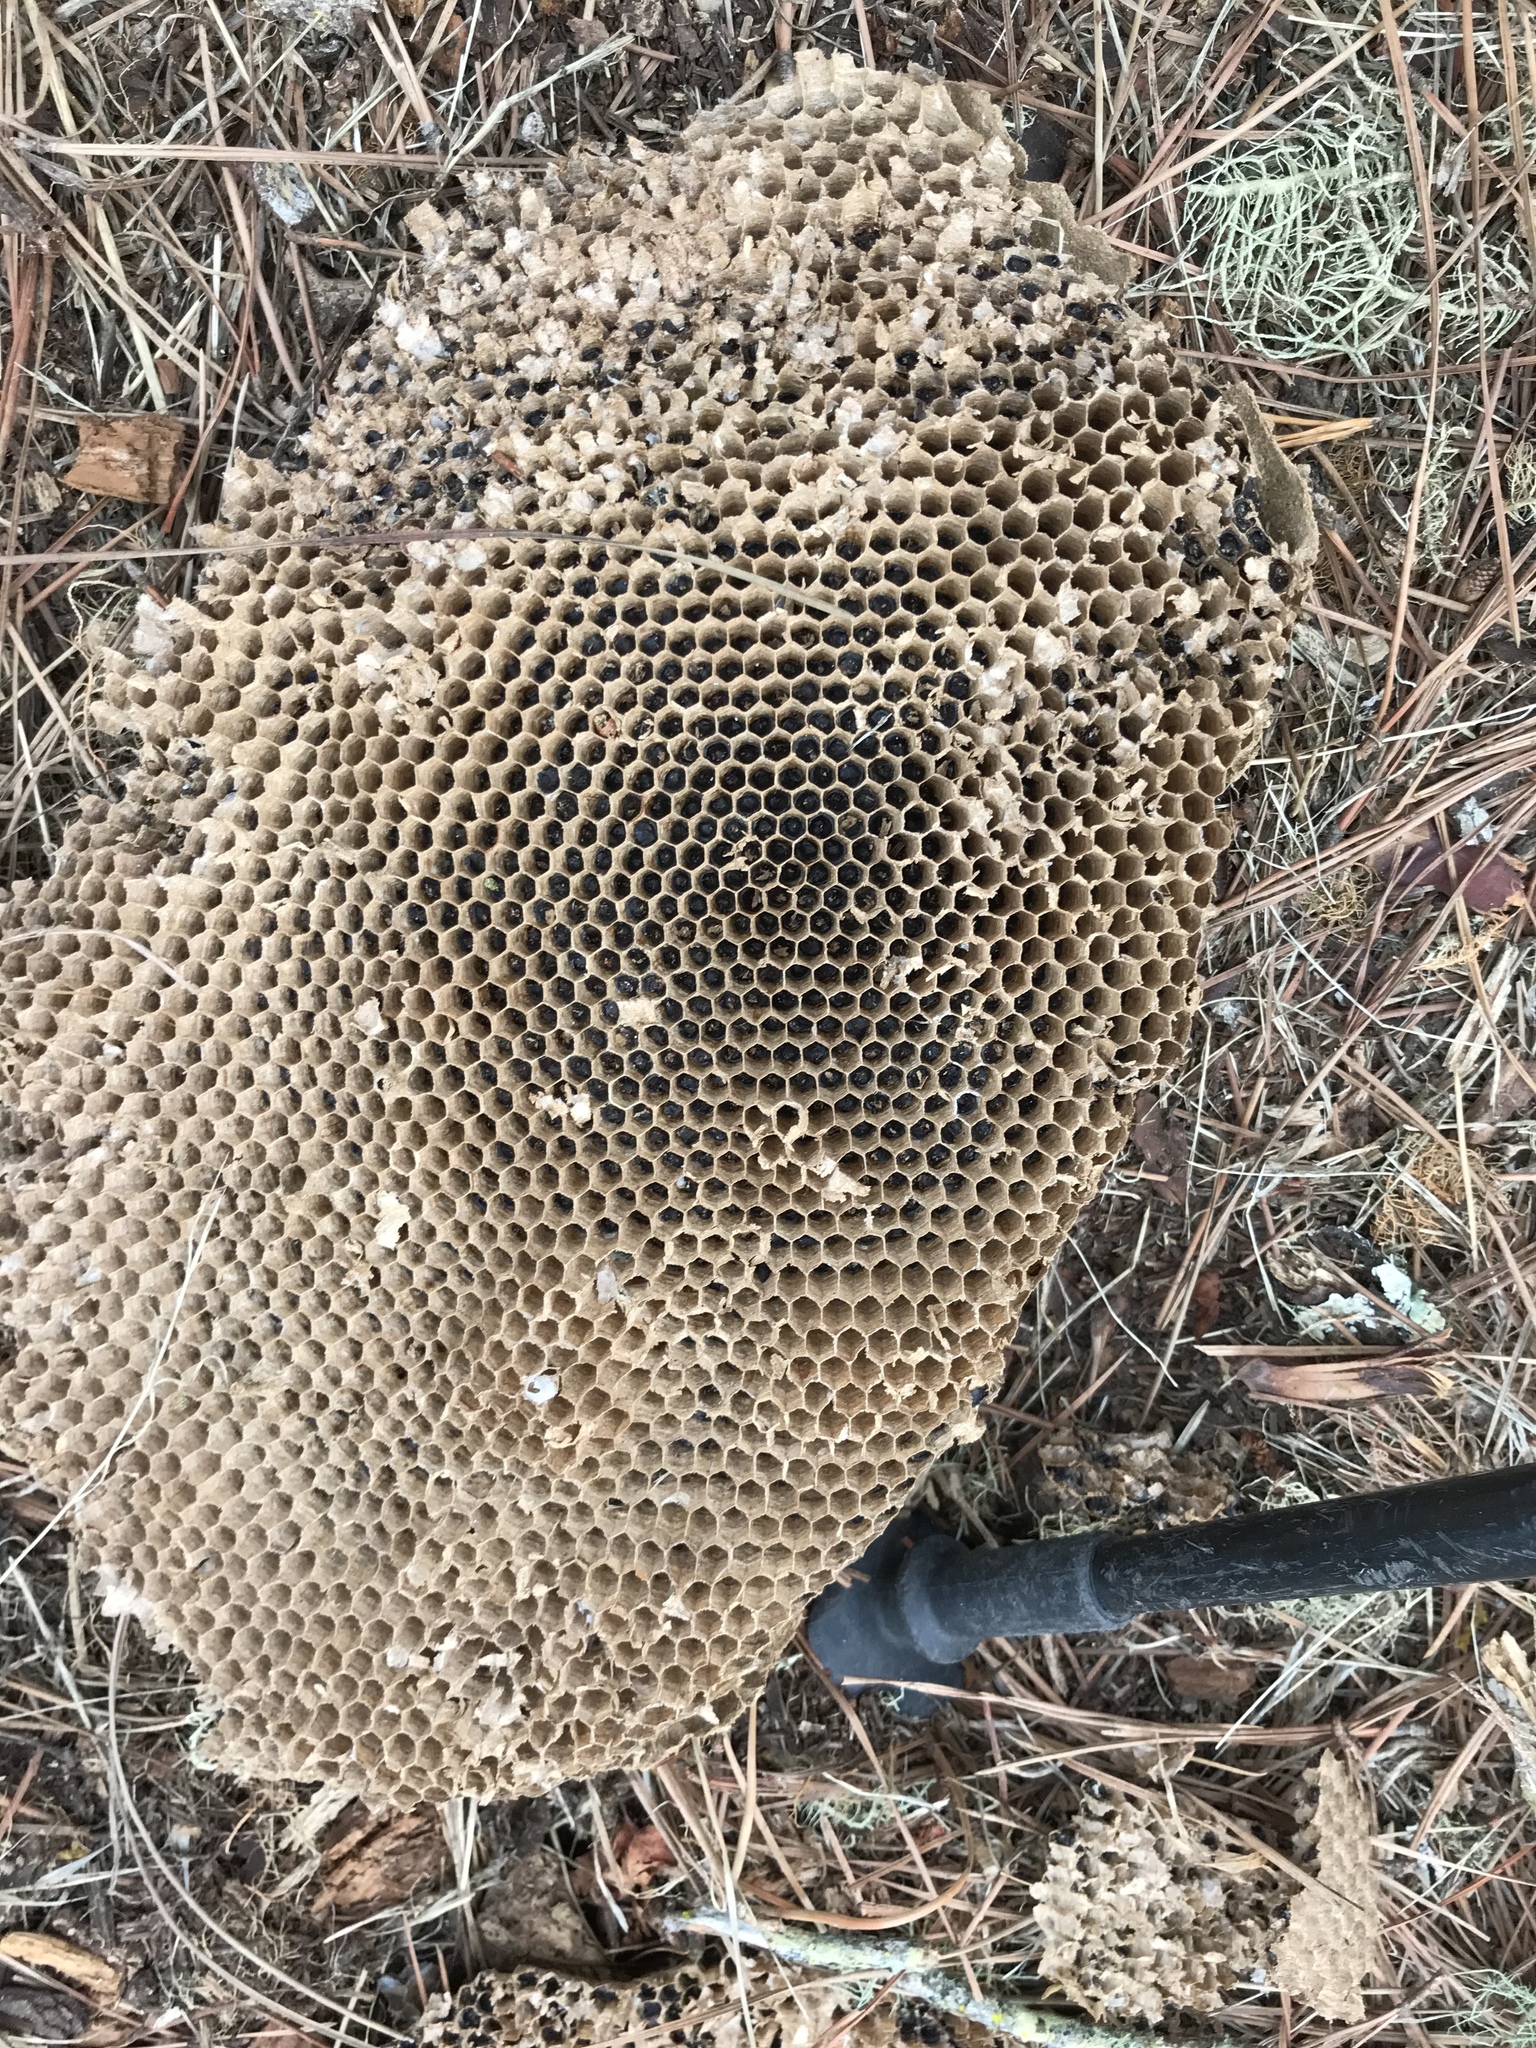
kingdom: Animalia
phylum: Arthropoda
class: Insecta
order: Hymenoptera
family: Vespidae
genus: Vespula
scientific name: Vespula
